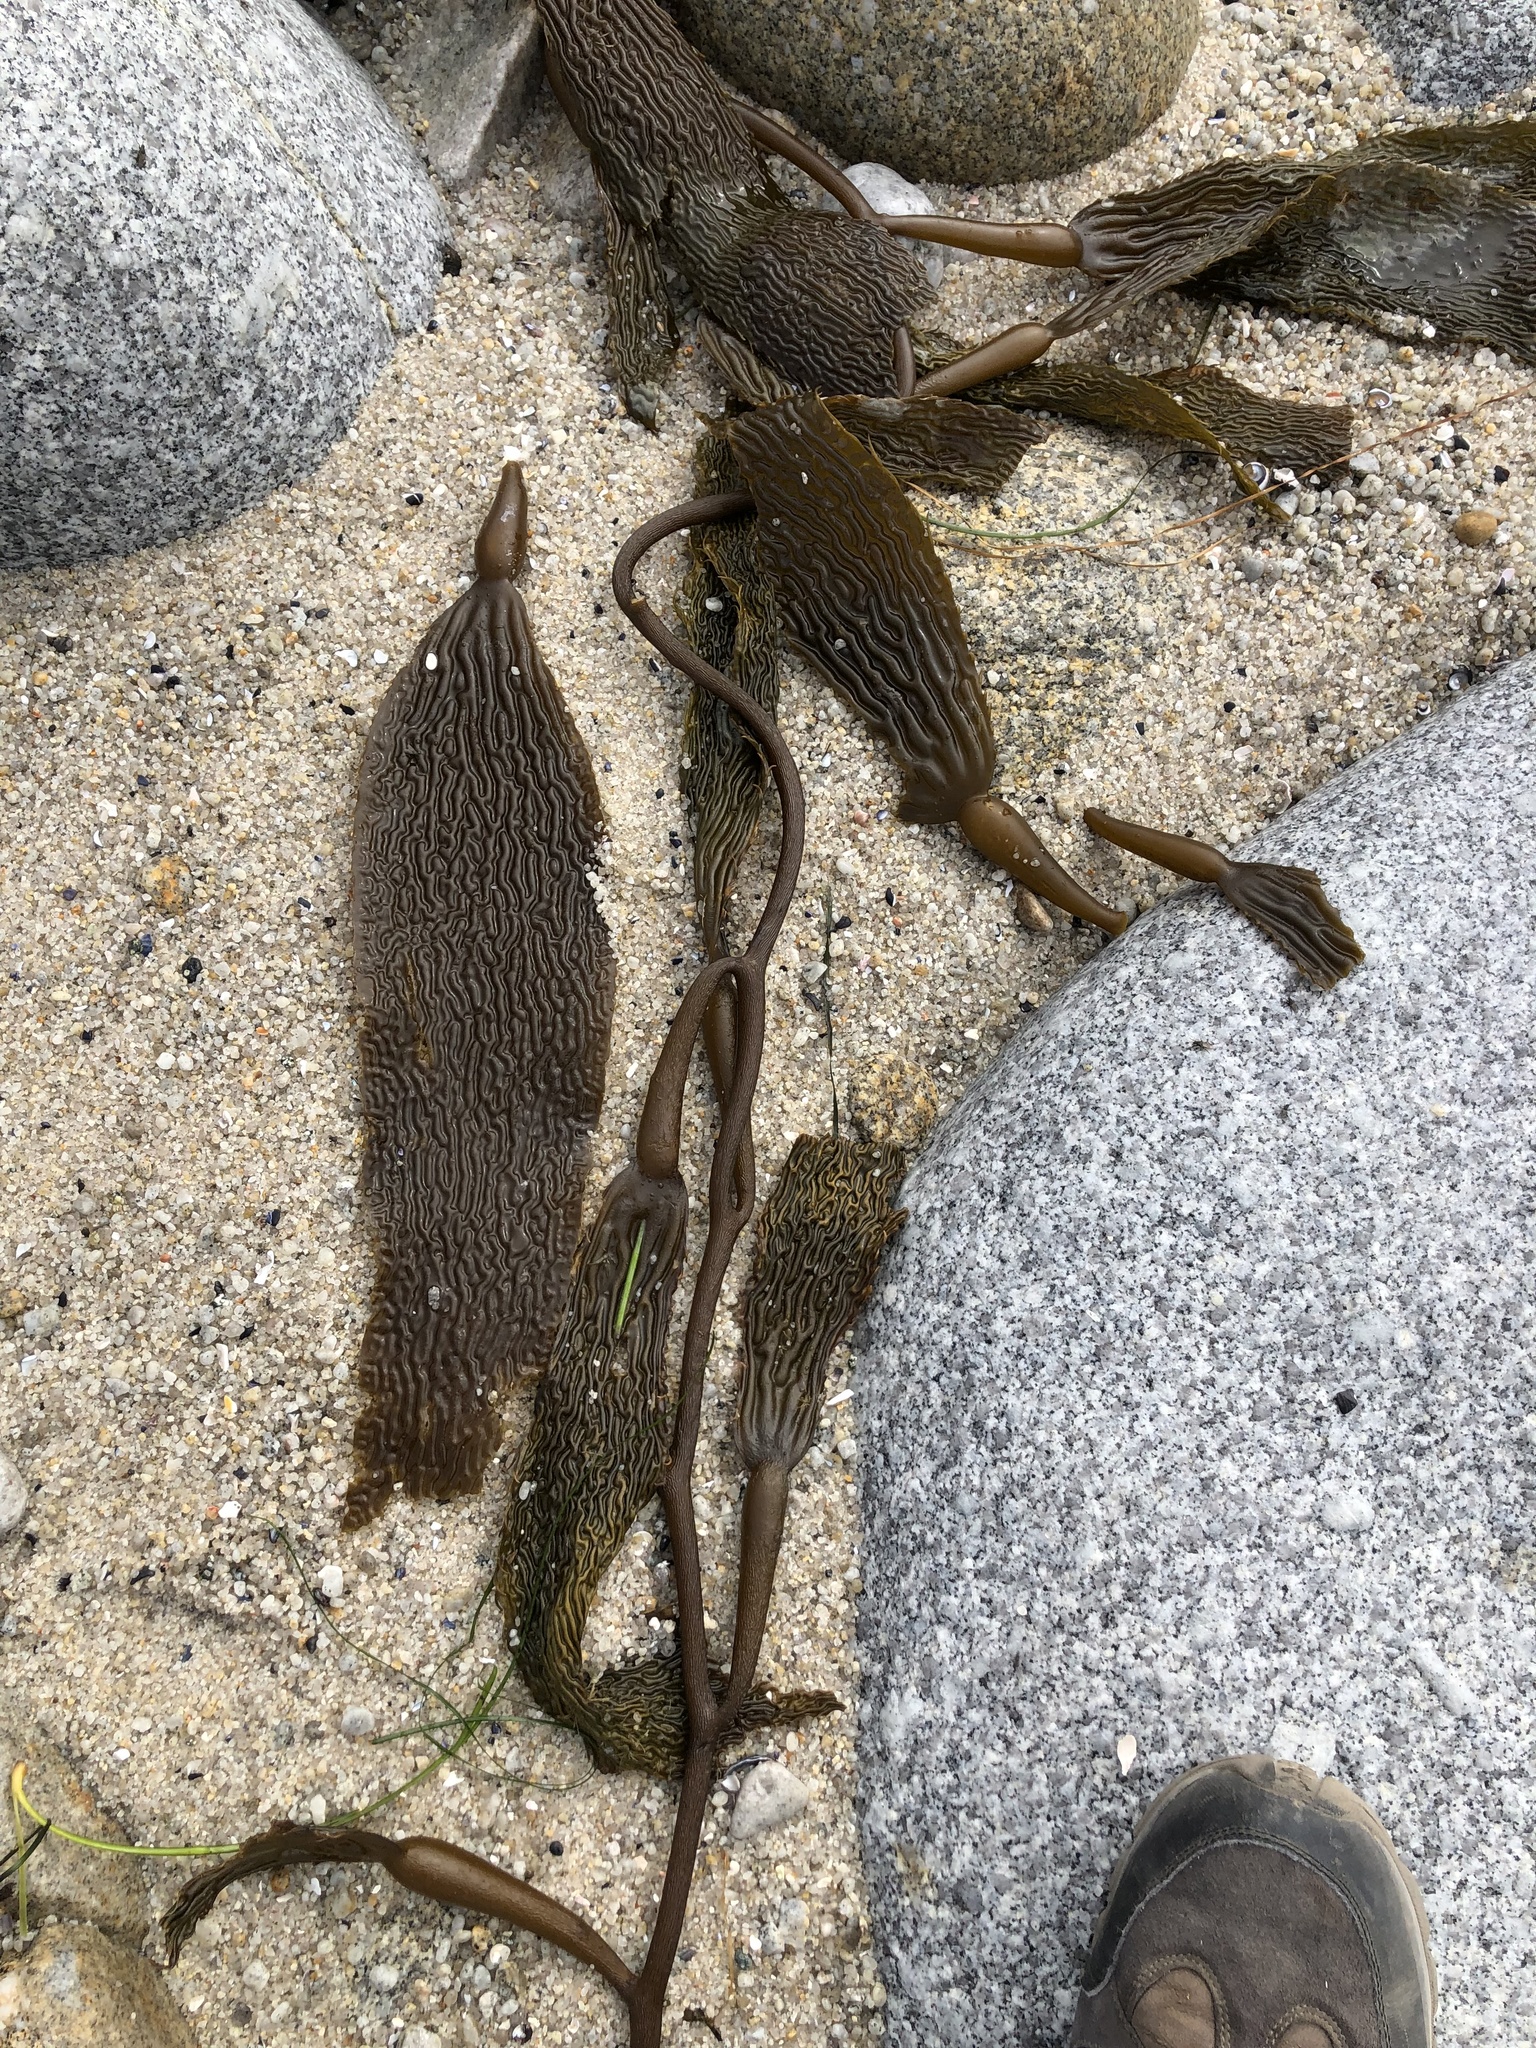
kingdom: Chromista
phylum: Ochrophyta
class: Phaeophyceae
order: Laminariales
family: Laminariaceae
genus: Macrocystis
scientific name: Macrocystis pyrifera
